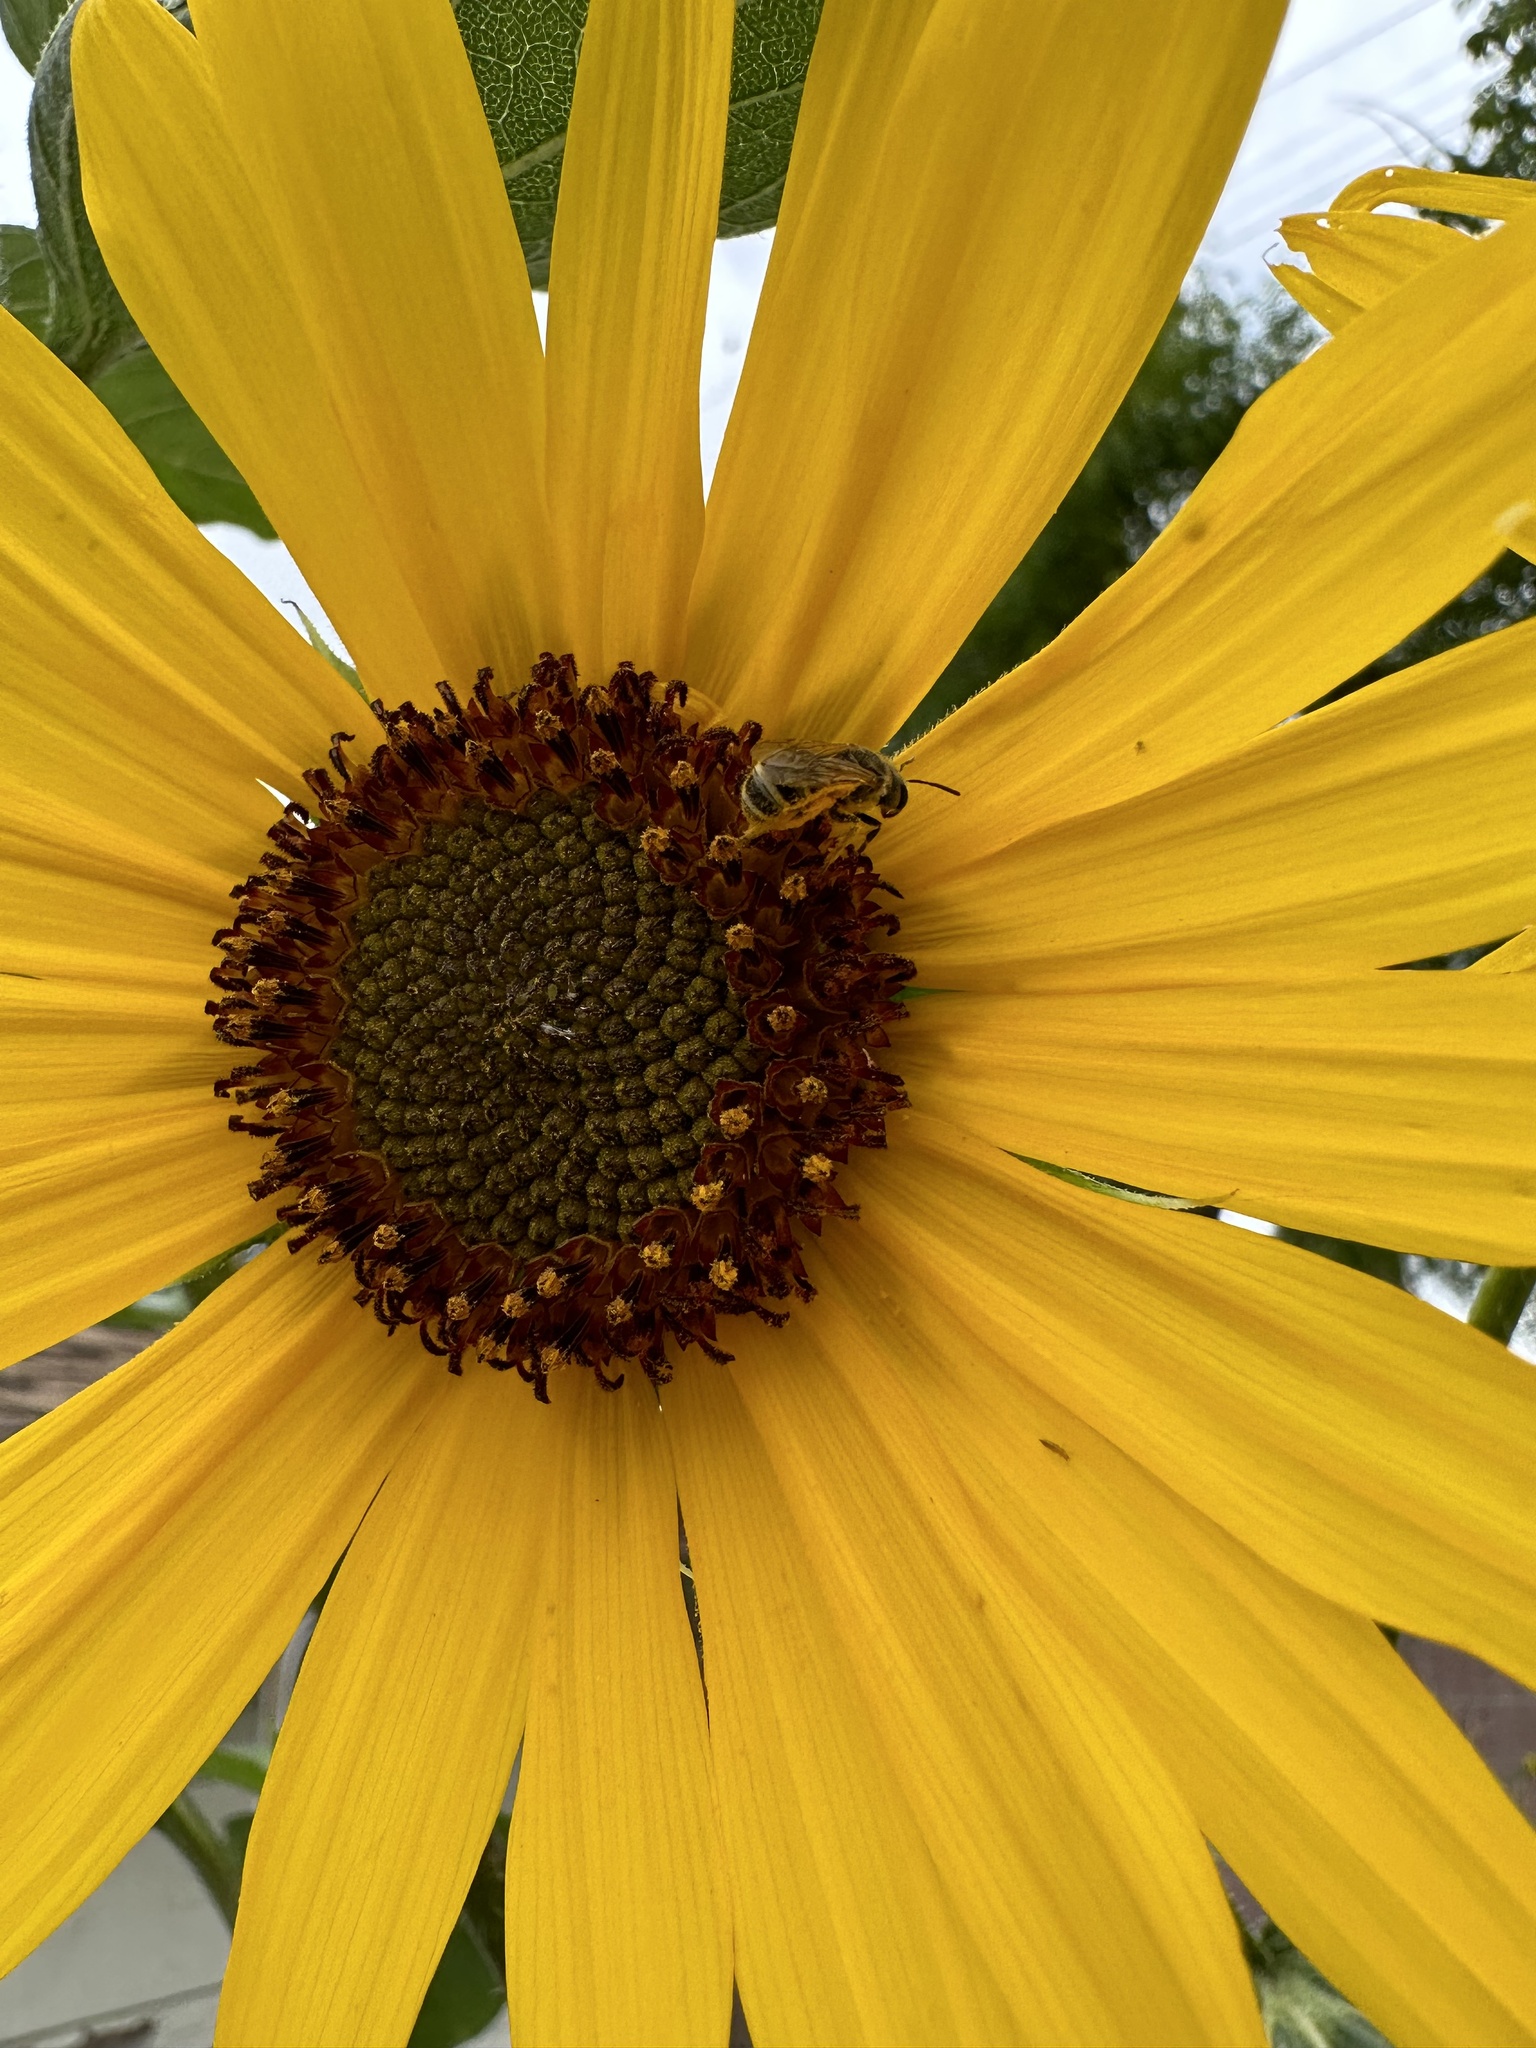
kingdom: Animalia
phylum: Arthropoda
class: Insecta
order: Hymenoptera
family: Halictidae
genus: Halictus
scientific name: Halictus ligatus
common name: Ligated furrow bee
